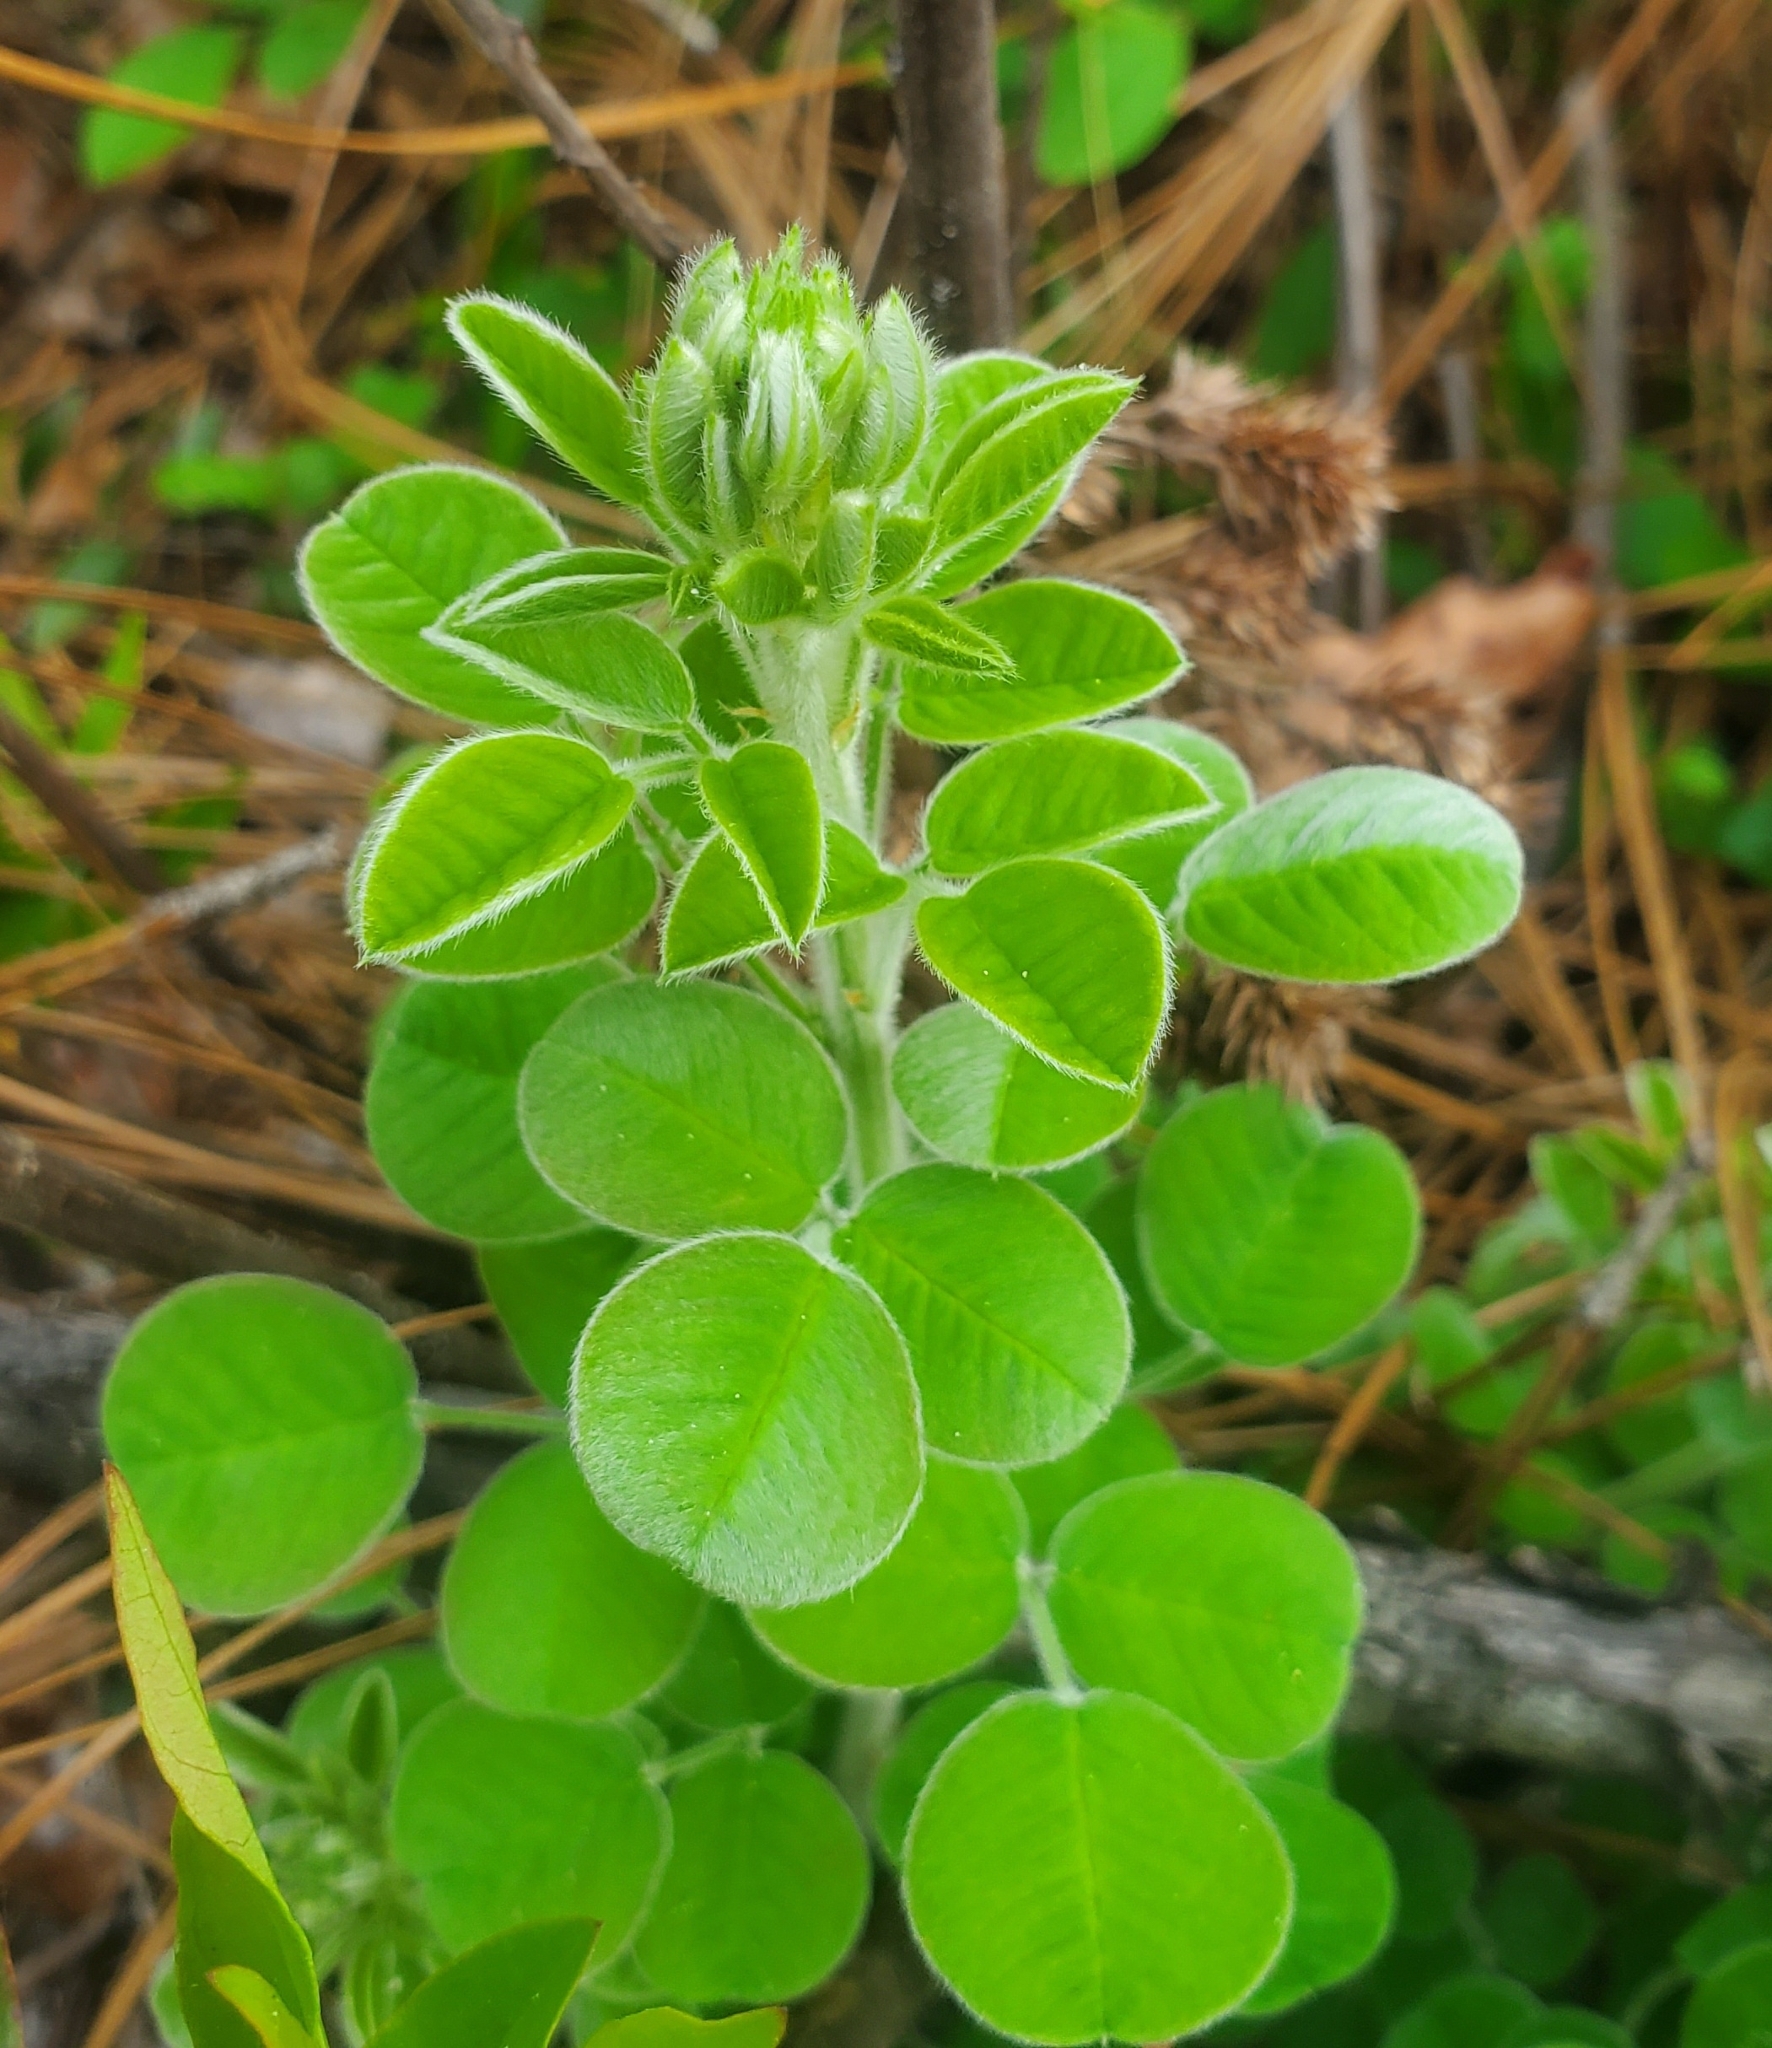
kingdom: Plantae
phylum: Tracheophyta
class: Magnoliopsida
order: Fabales
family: Fabaceae
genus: Lespedeza
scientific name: Lespedeza hirta
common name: Hairy lespedeza
